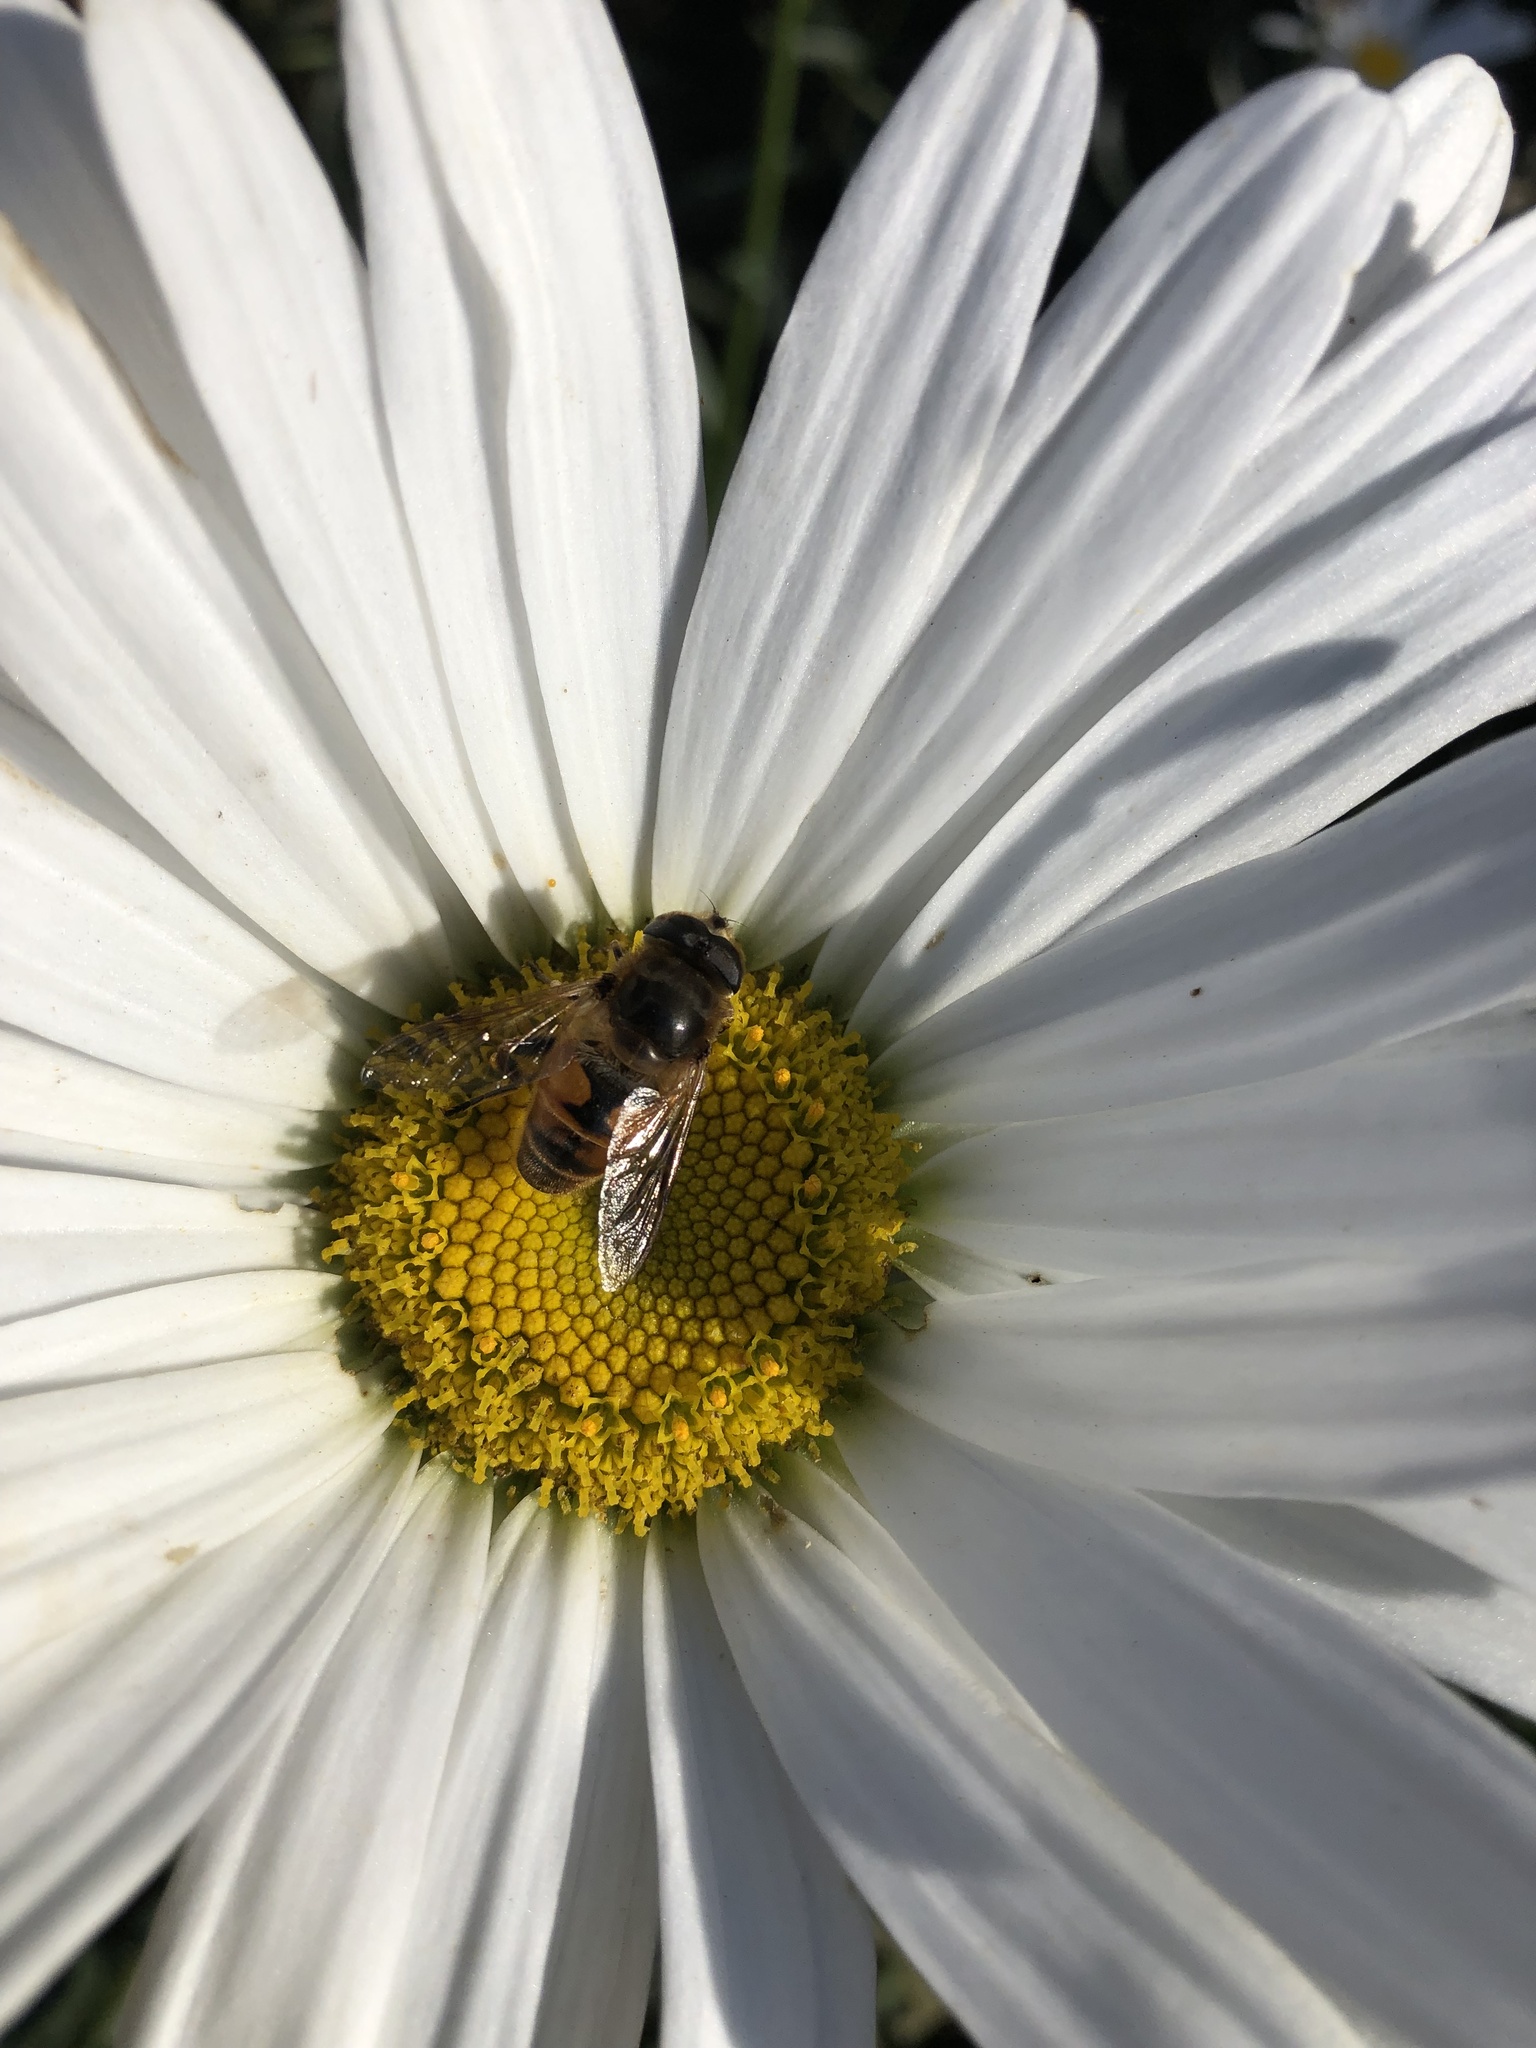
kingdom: Animalia
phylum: Arthropoda
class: Insecta
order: Diptera
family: Syrphidae
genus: Eristalis
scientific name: Eristalis tenax
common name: Drone fly
